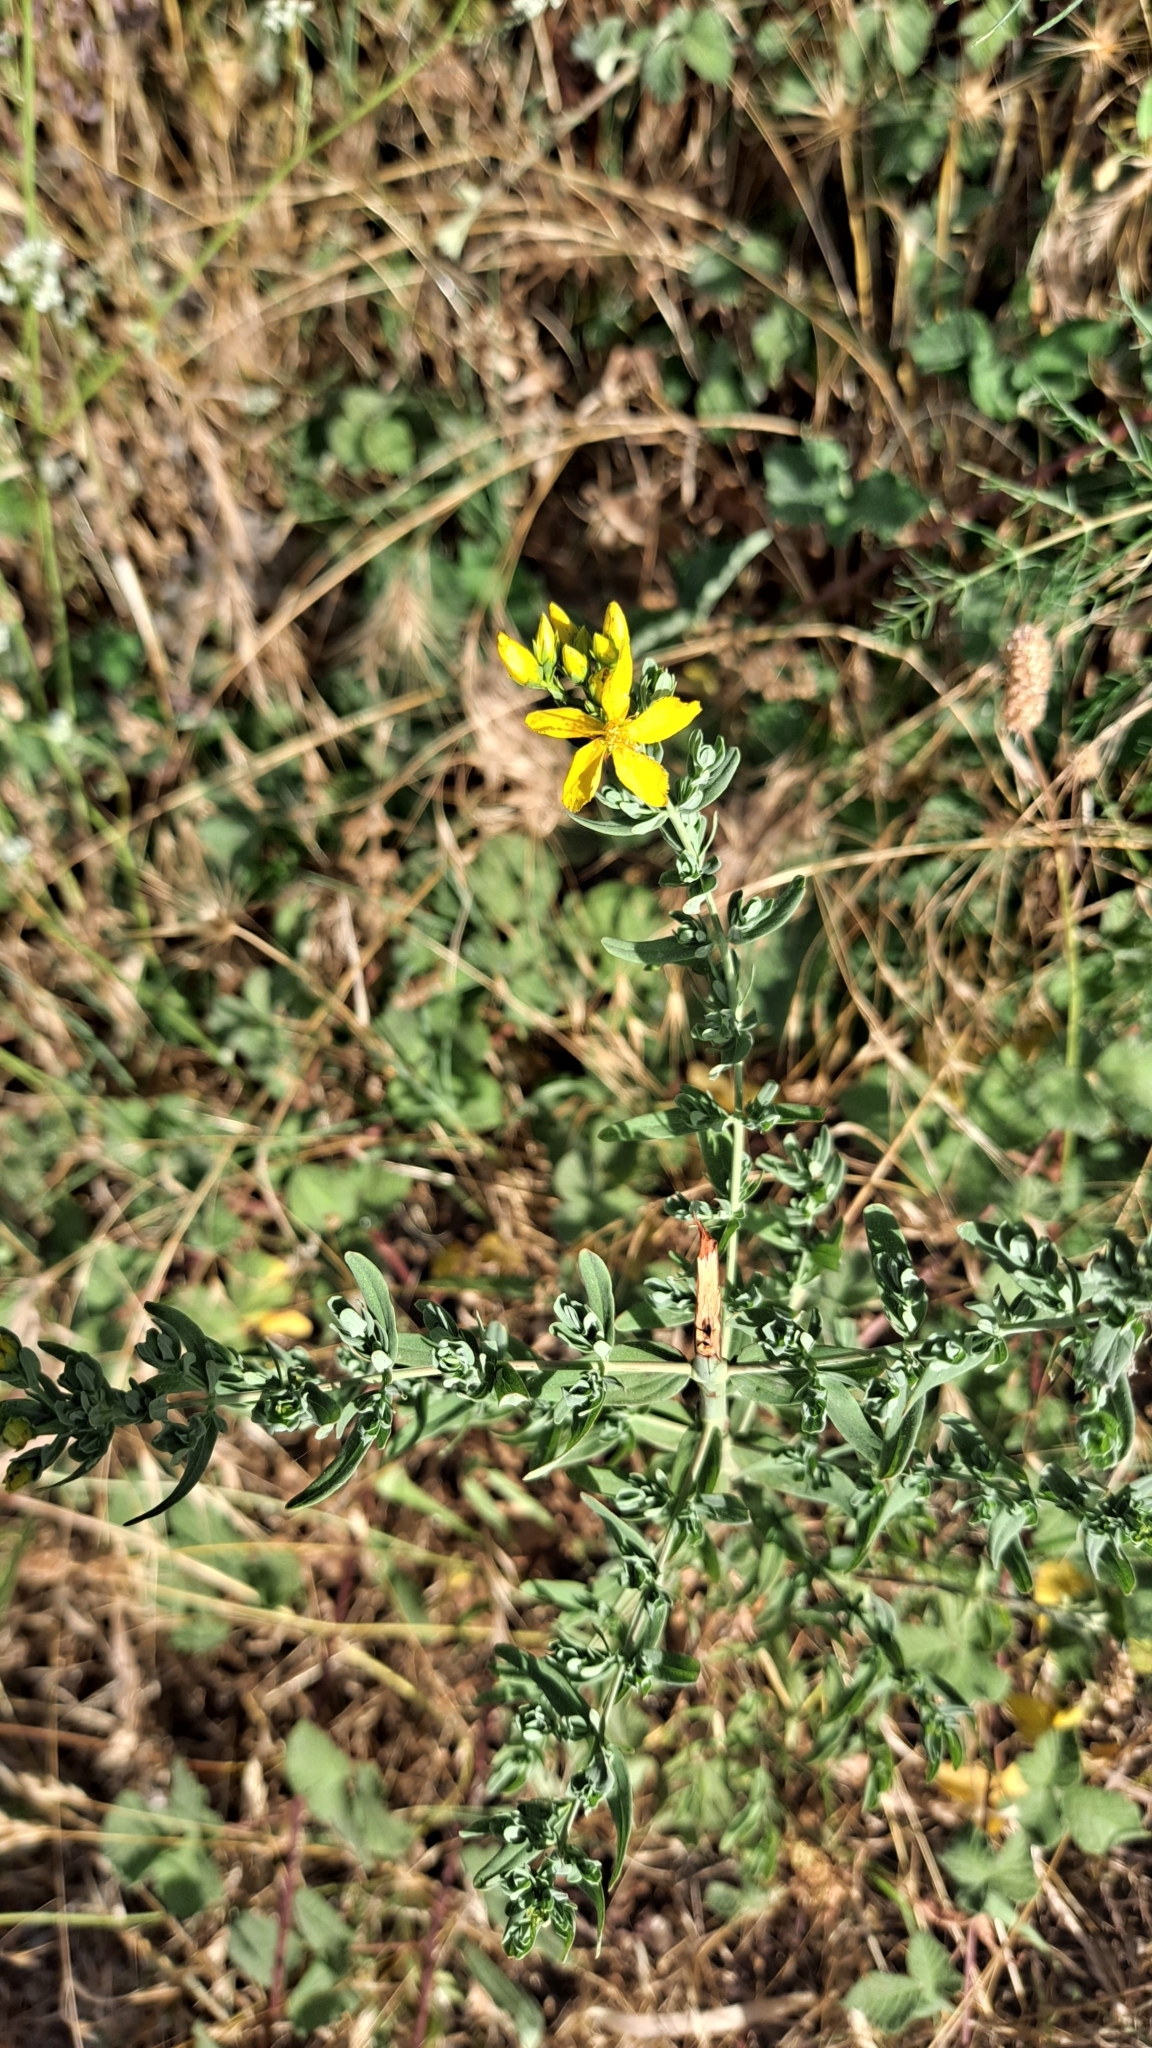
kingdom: Plantae
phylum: Tracheophyta
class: Magnoliopsida
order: Malpighiales
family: Hypericaceae
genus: Hypericum
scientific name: Hypericum perforatum
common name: Common st. johnswort
